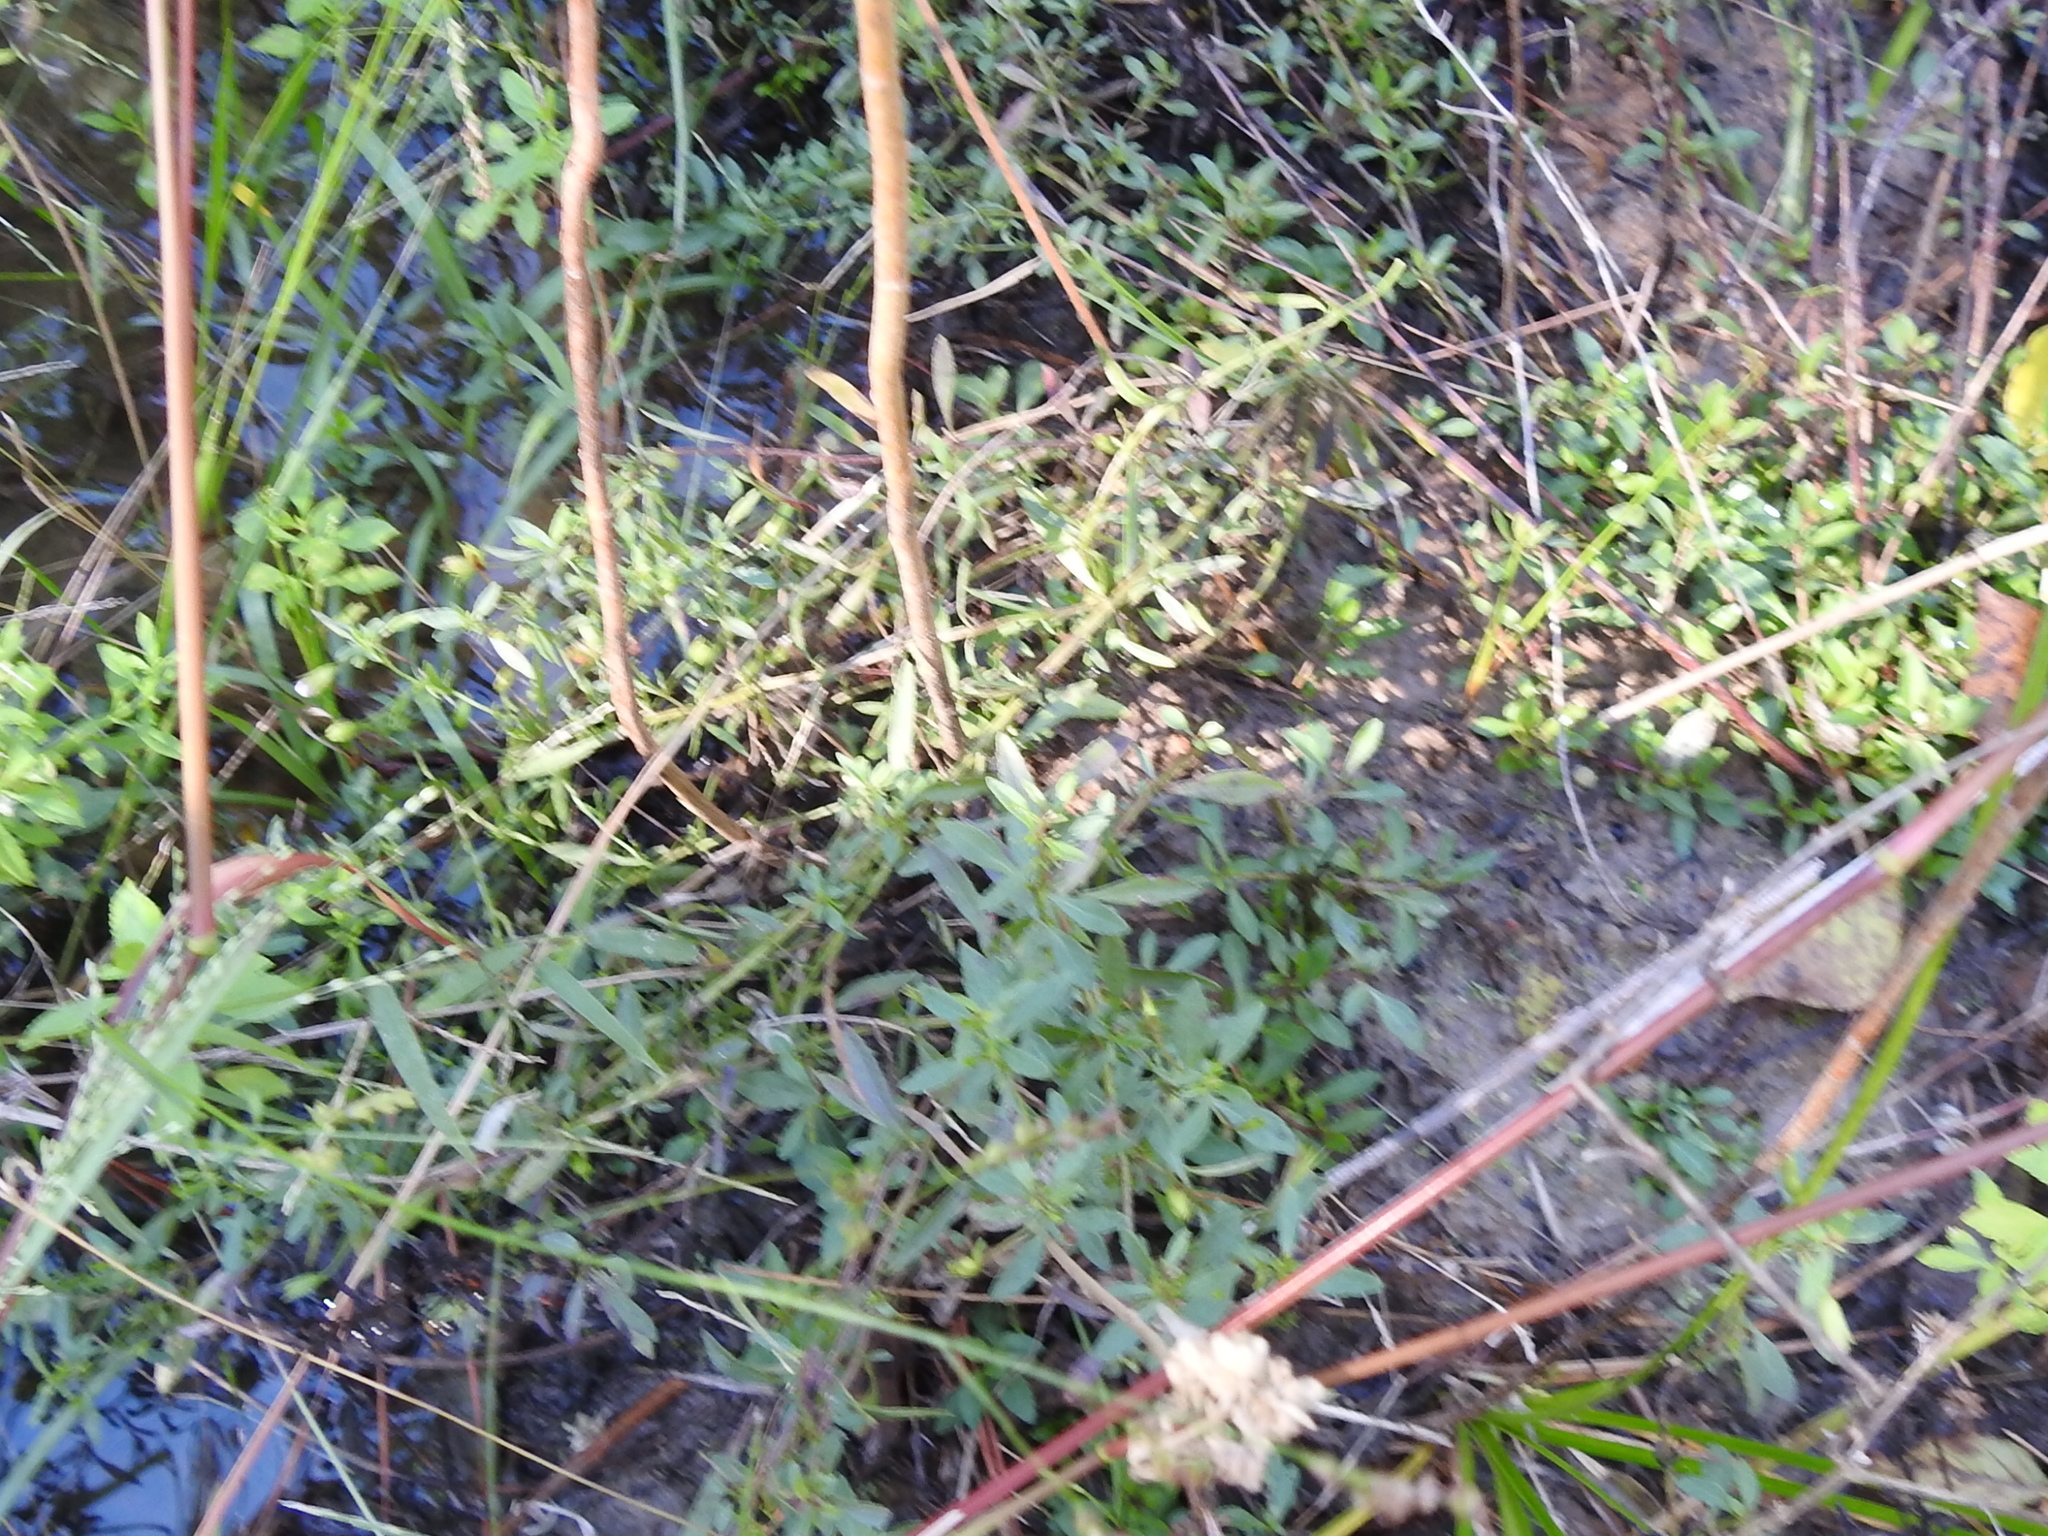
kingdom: Plantae
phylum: Tracheophyta
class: Magnoliopsida
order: Lamiales
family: Plantaginaceae
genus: Mecardonia
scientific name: Mecardonia acuminata
